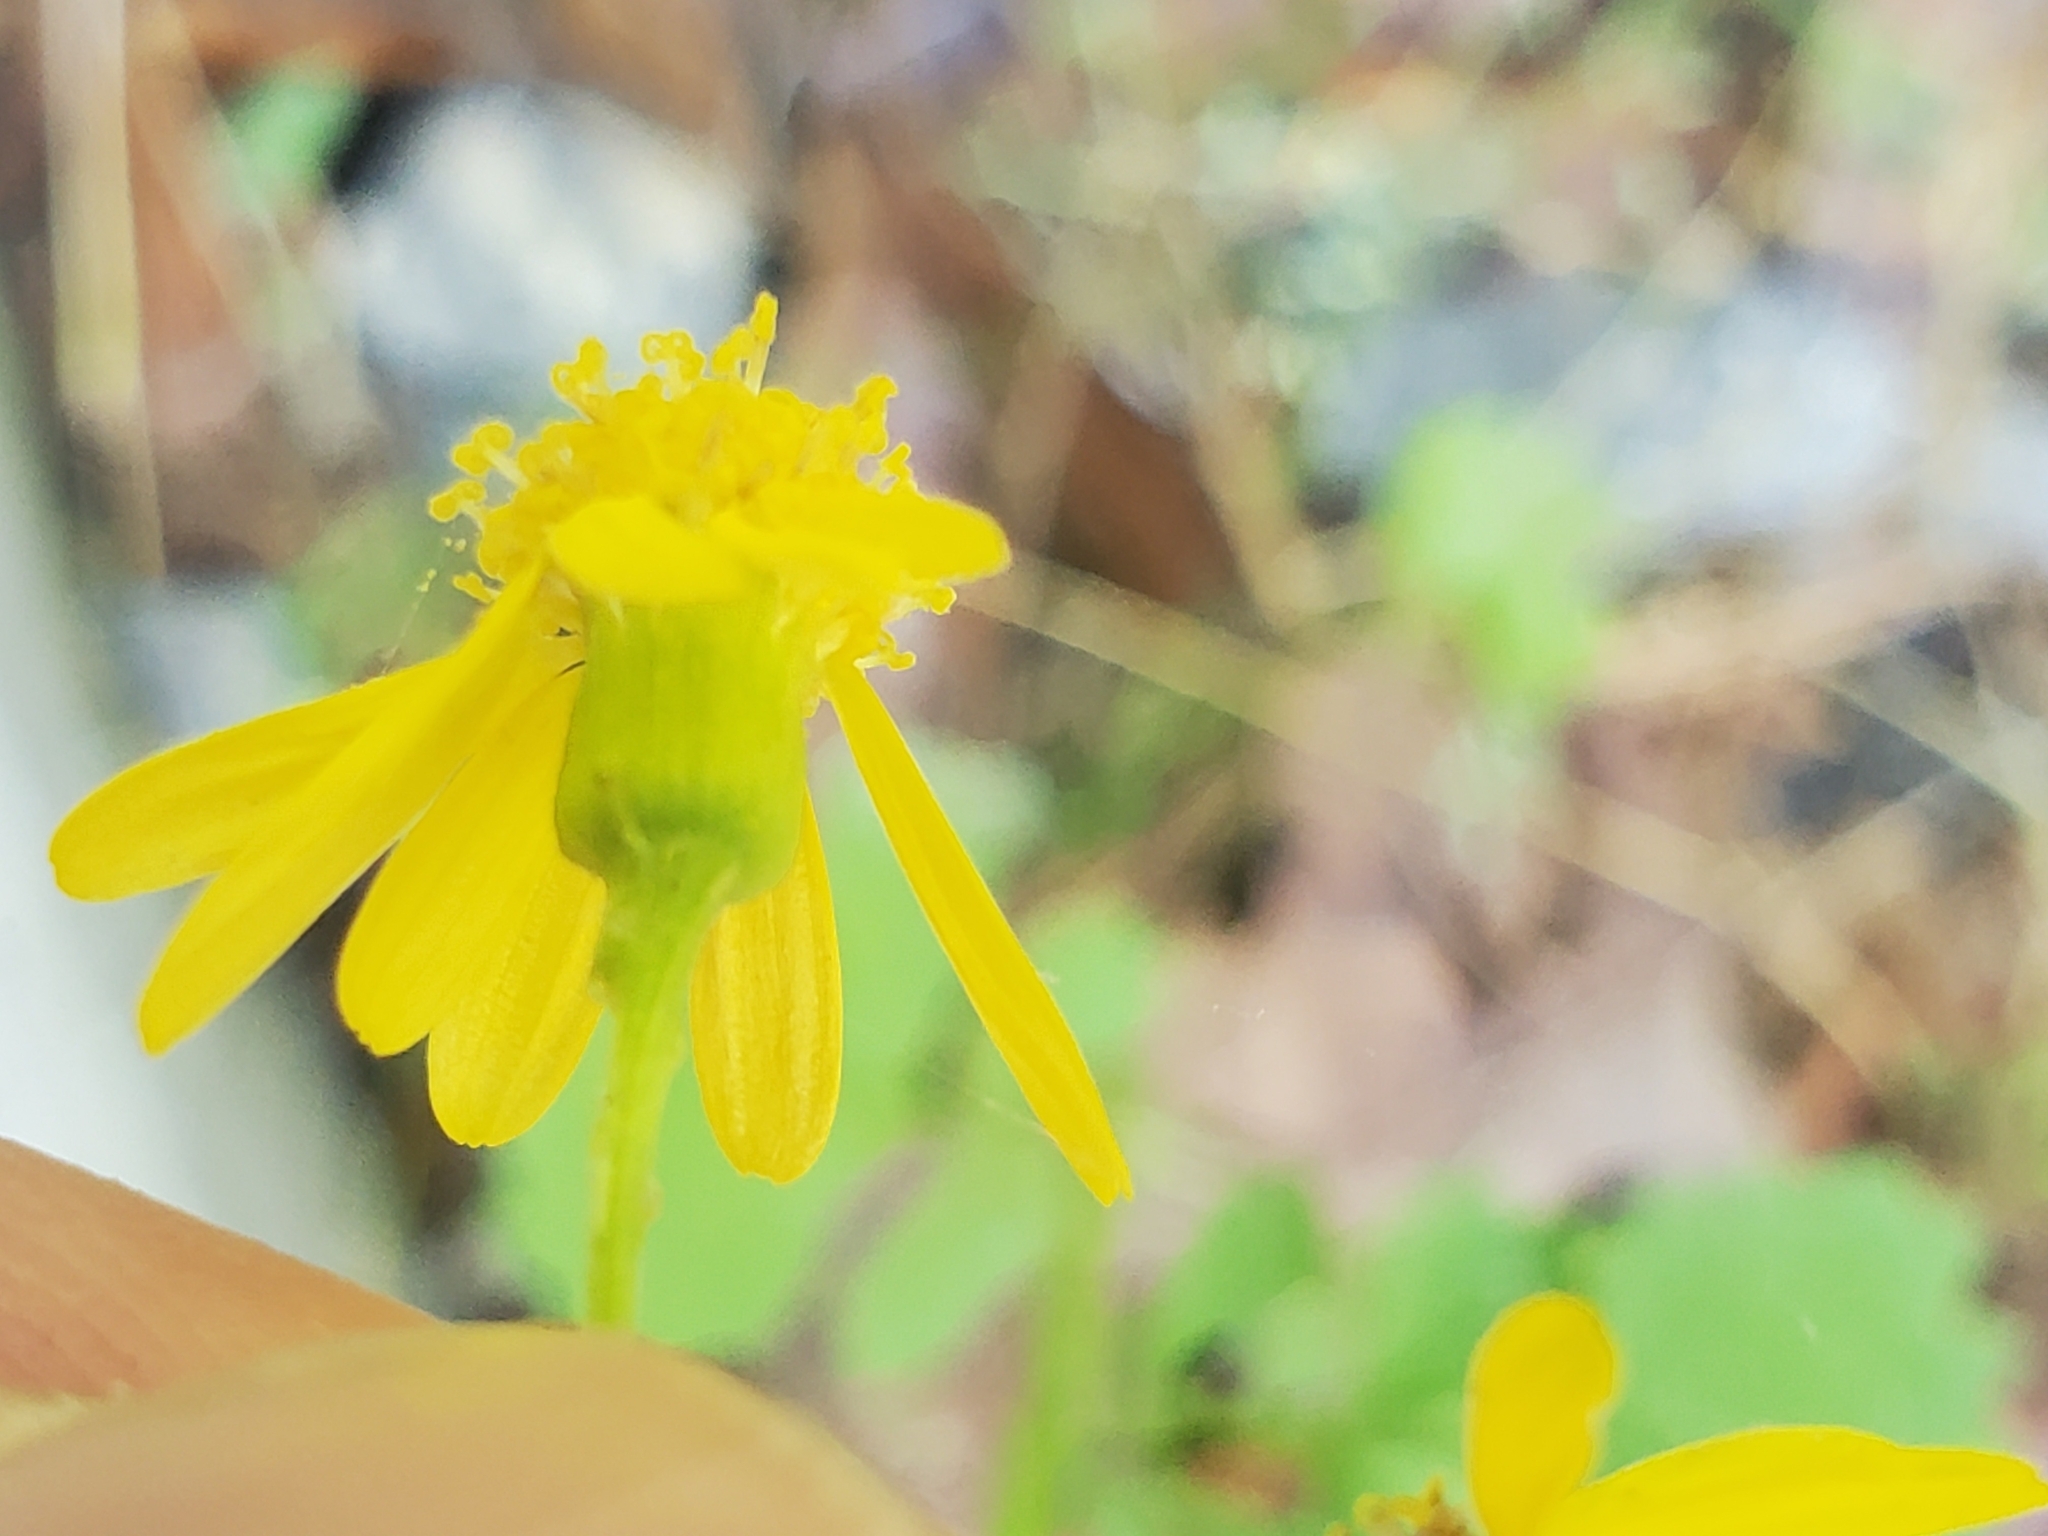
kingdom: Plantae
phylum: Tracheophyta
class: Magnoliopsida
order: Asterales
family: Asteraceae
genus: Packera
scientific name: Packera glabella
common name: Butterweed
